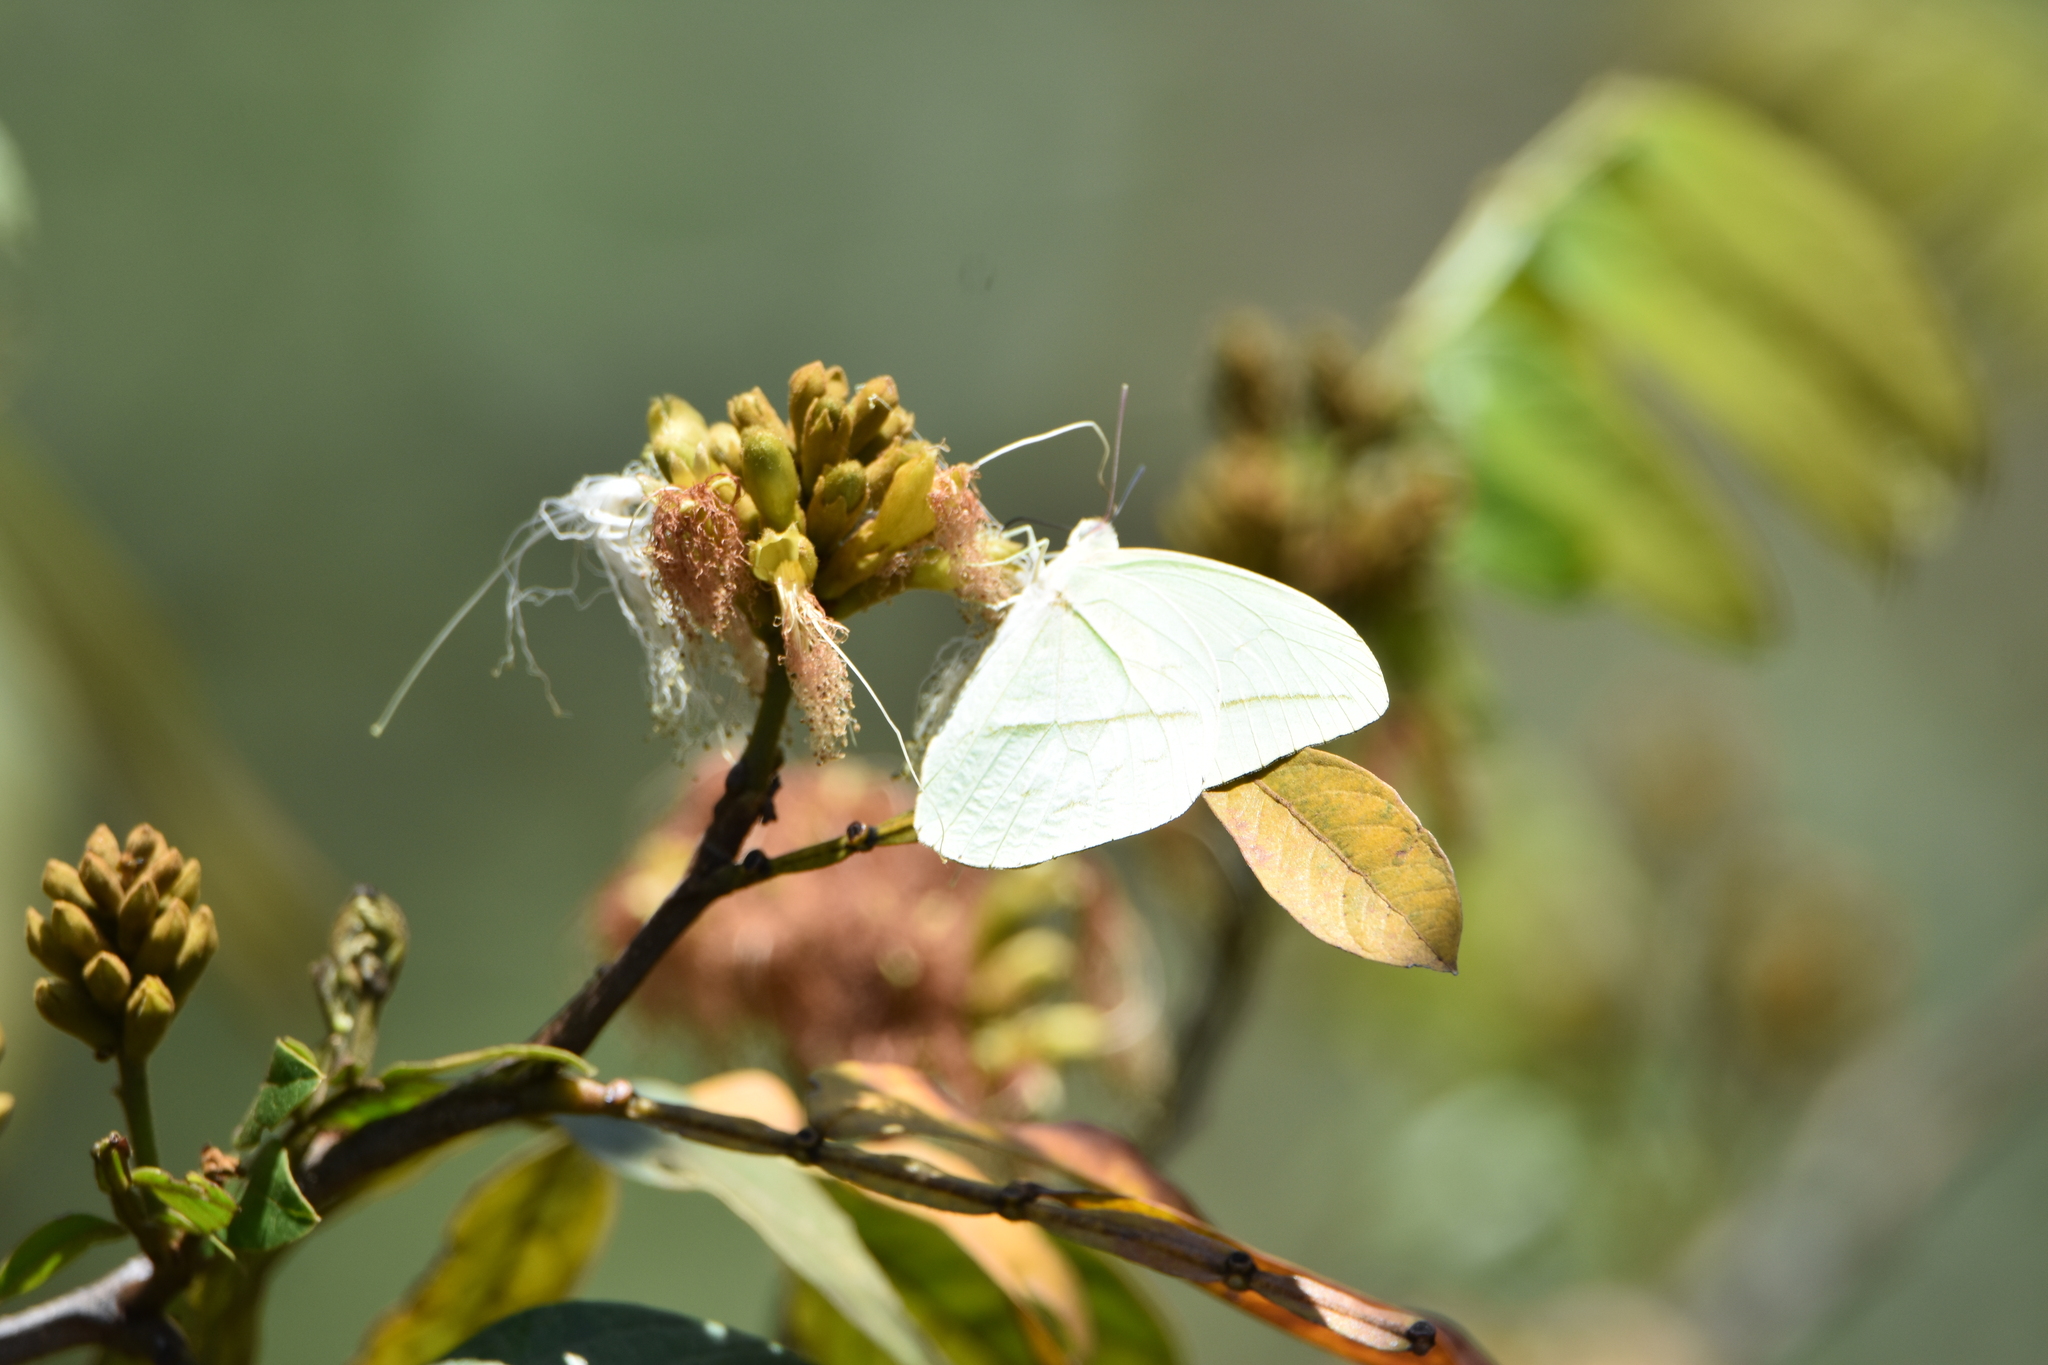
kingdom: Animalia
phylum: Arthropoda
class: Insecta
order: Lepidoptera
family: Pieridae
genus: Rhabdodryas
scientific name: Rhabdodryas trite
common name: Straight-lined sulphur
